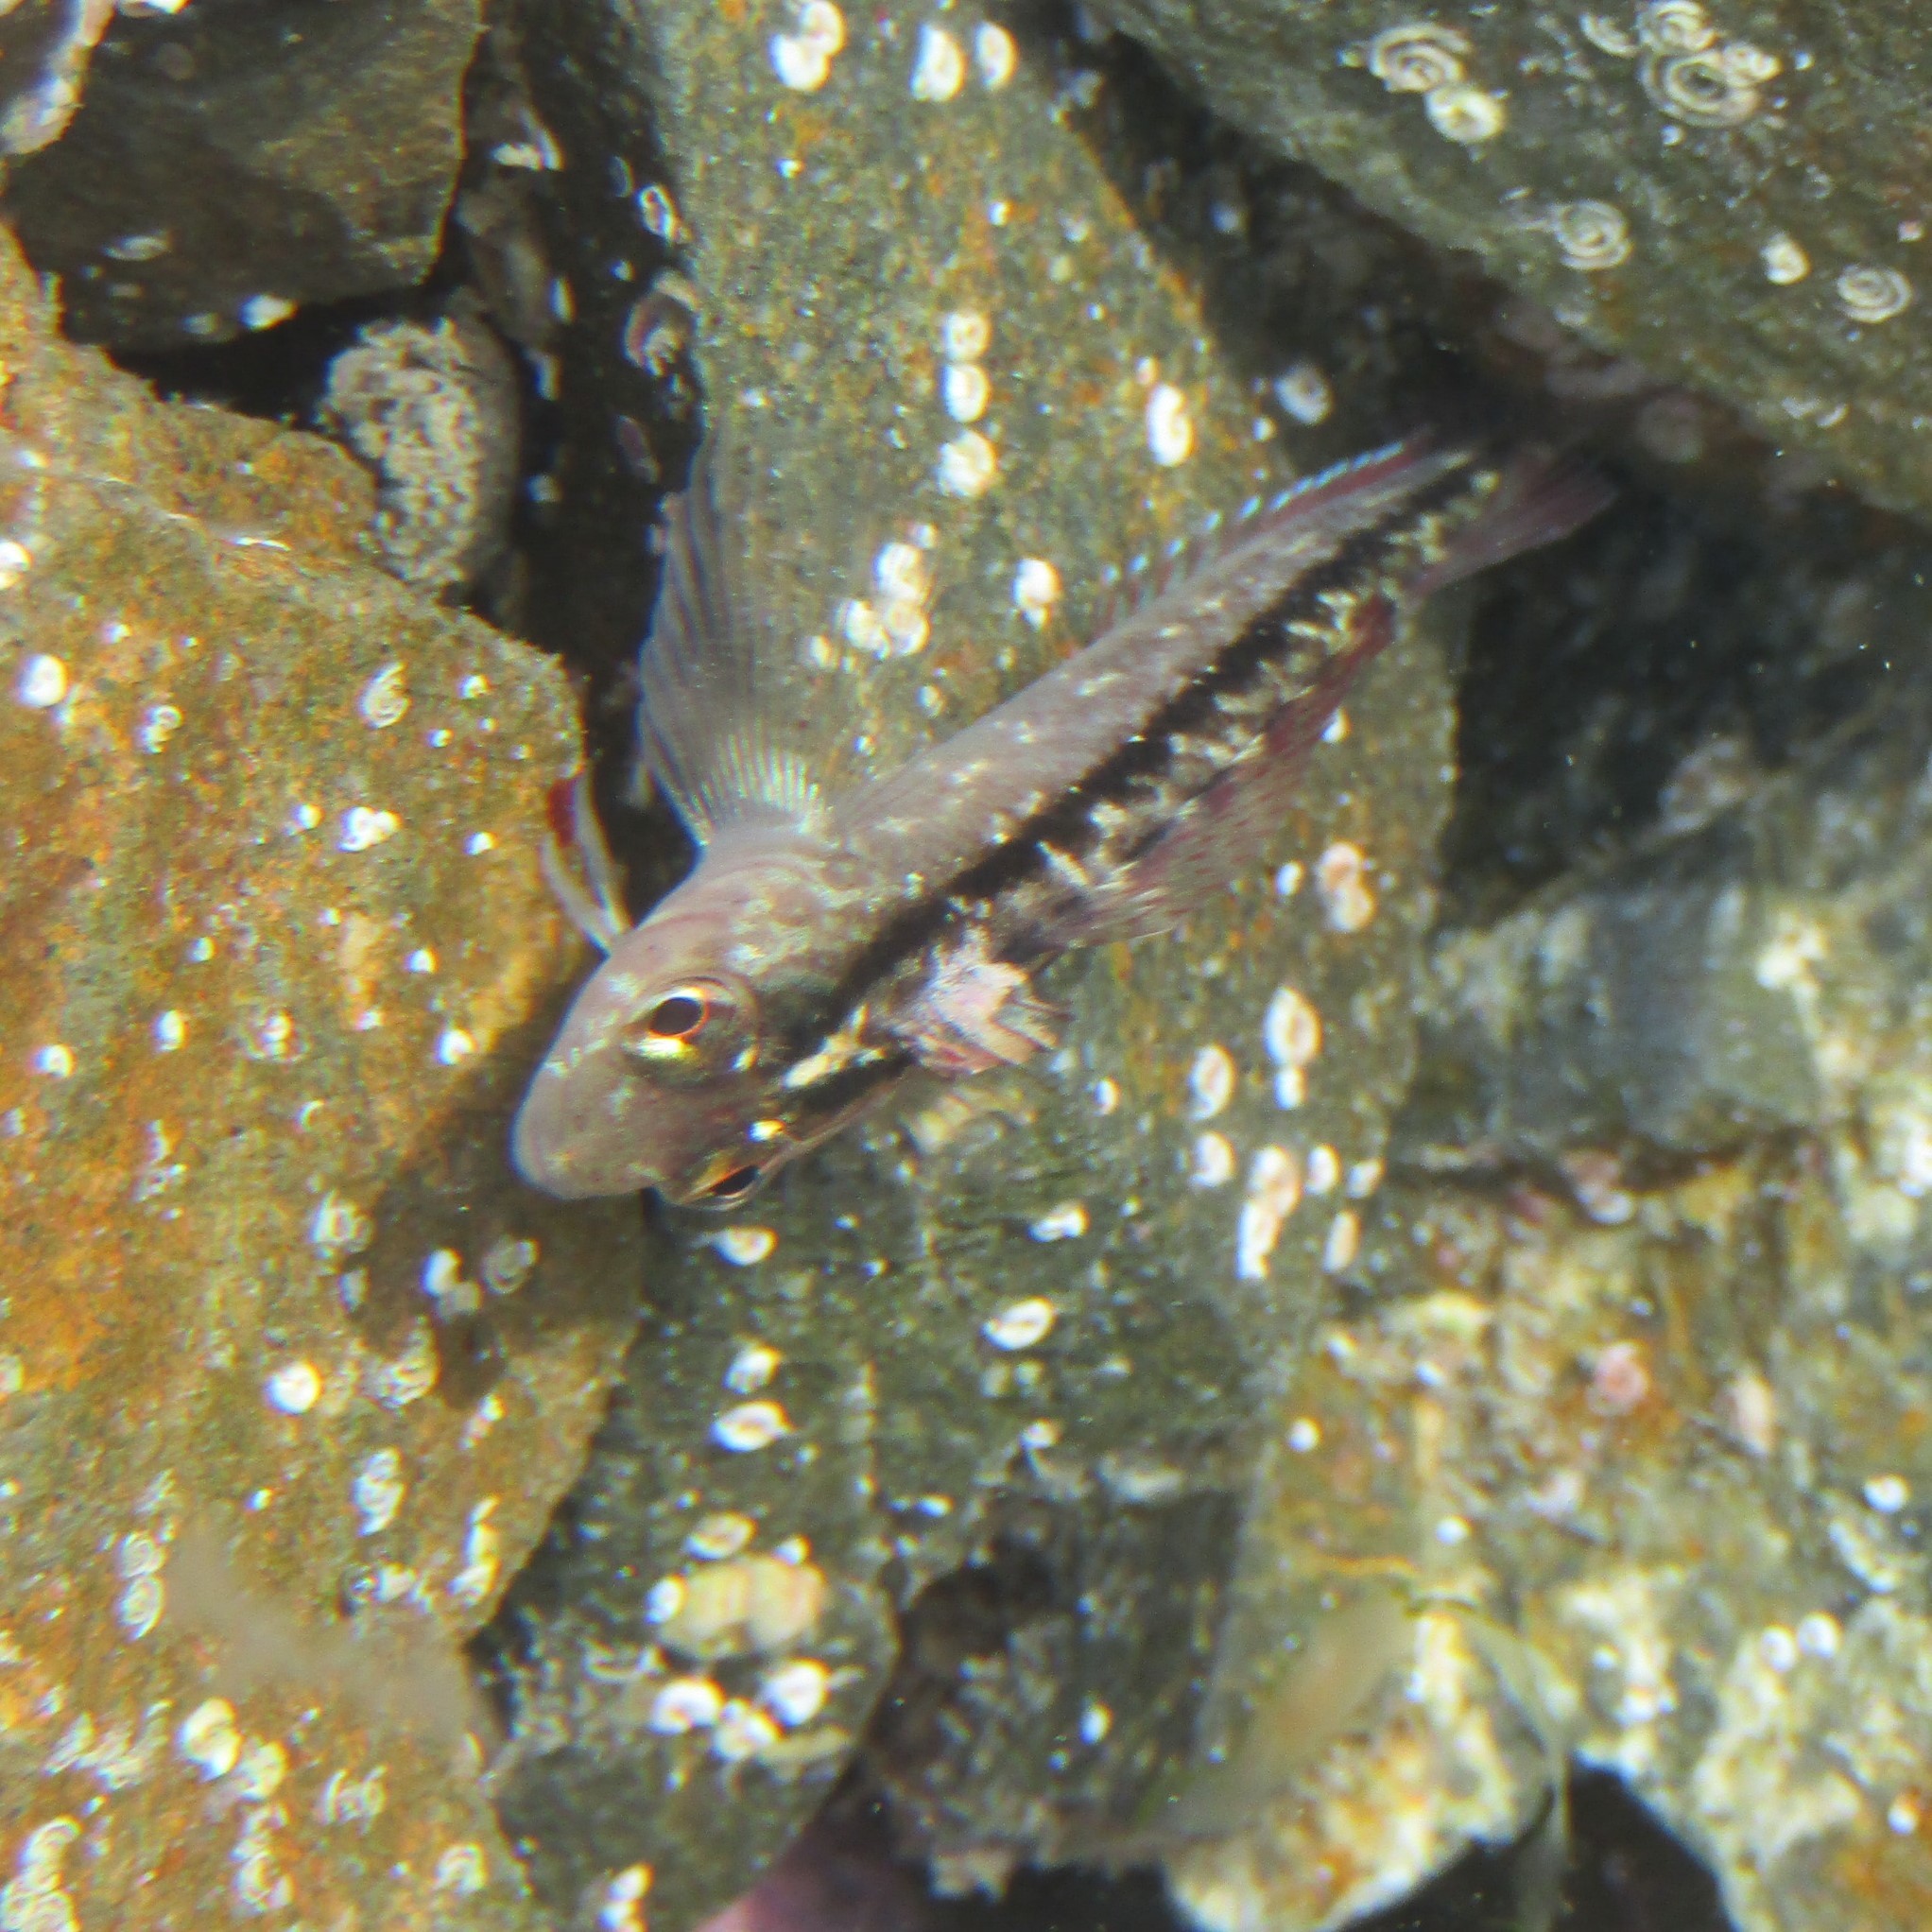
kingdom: Animalia
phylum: Chordata
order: Perciformes
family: Tripterygiidae
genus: Forsterygion
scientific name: Forsterygion lapillum
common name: Common triplefin
